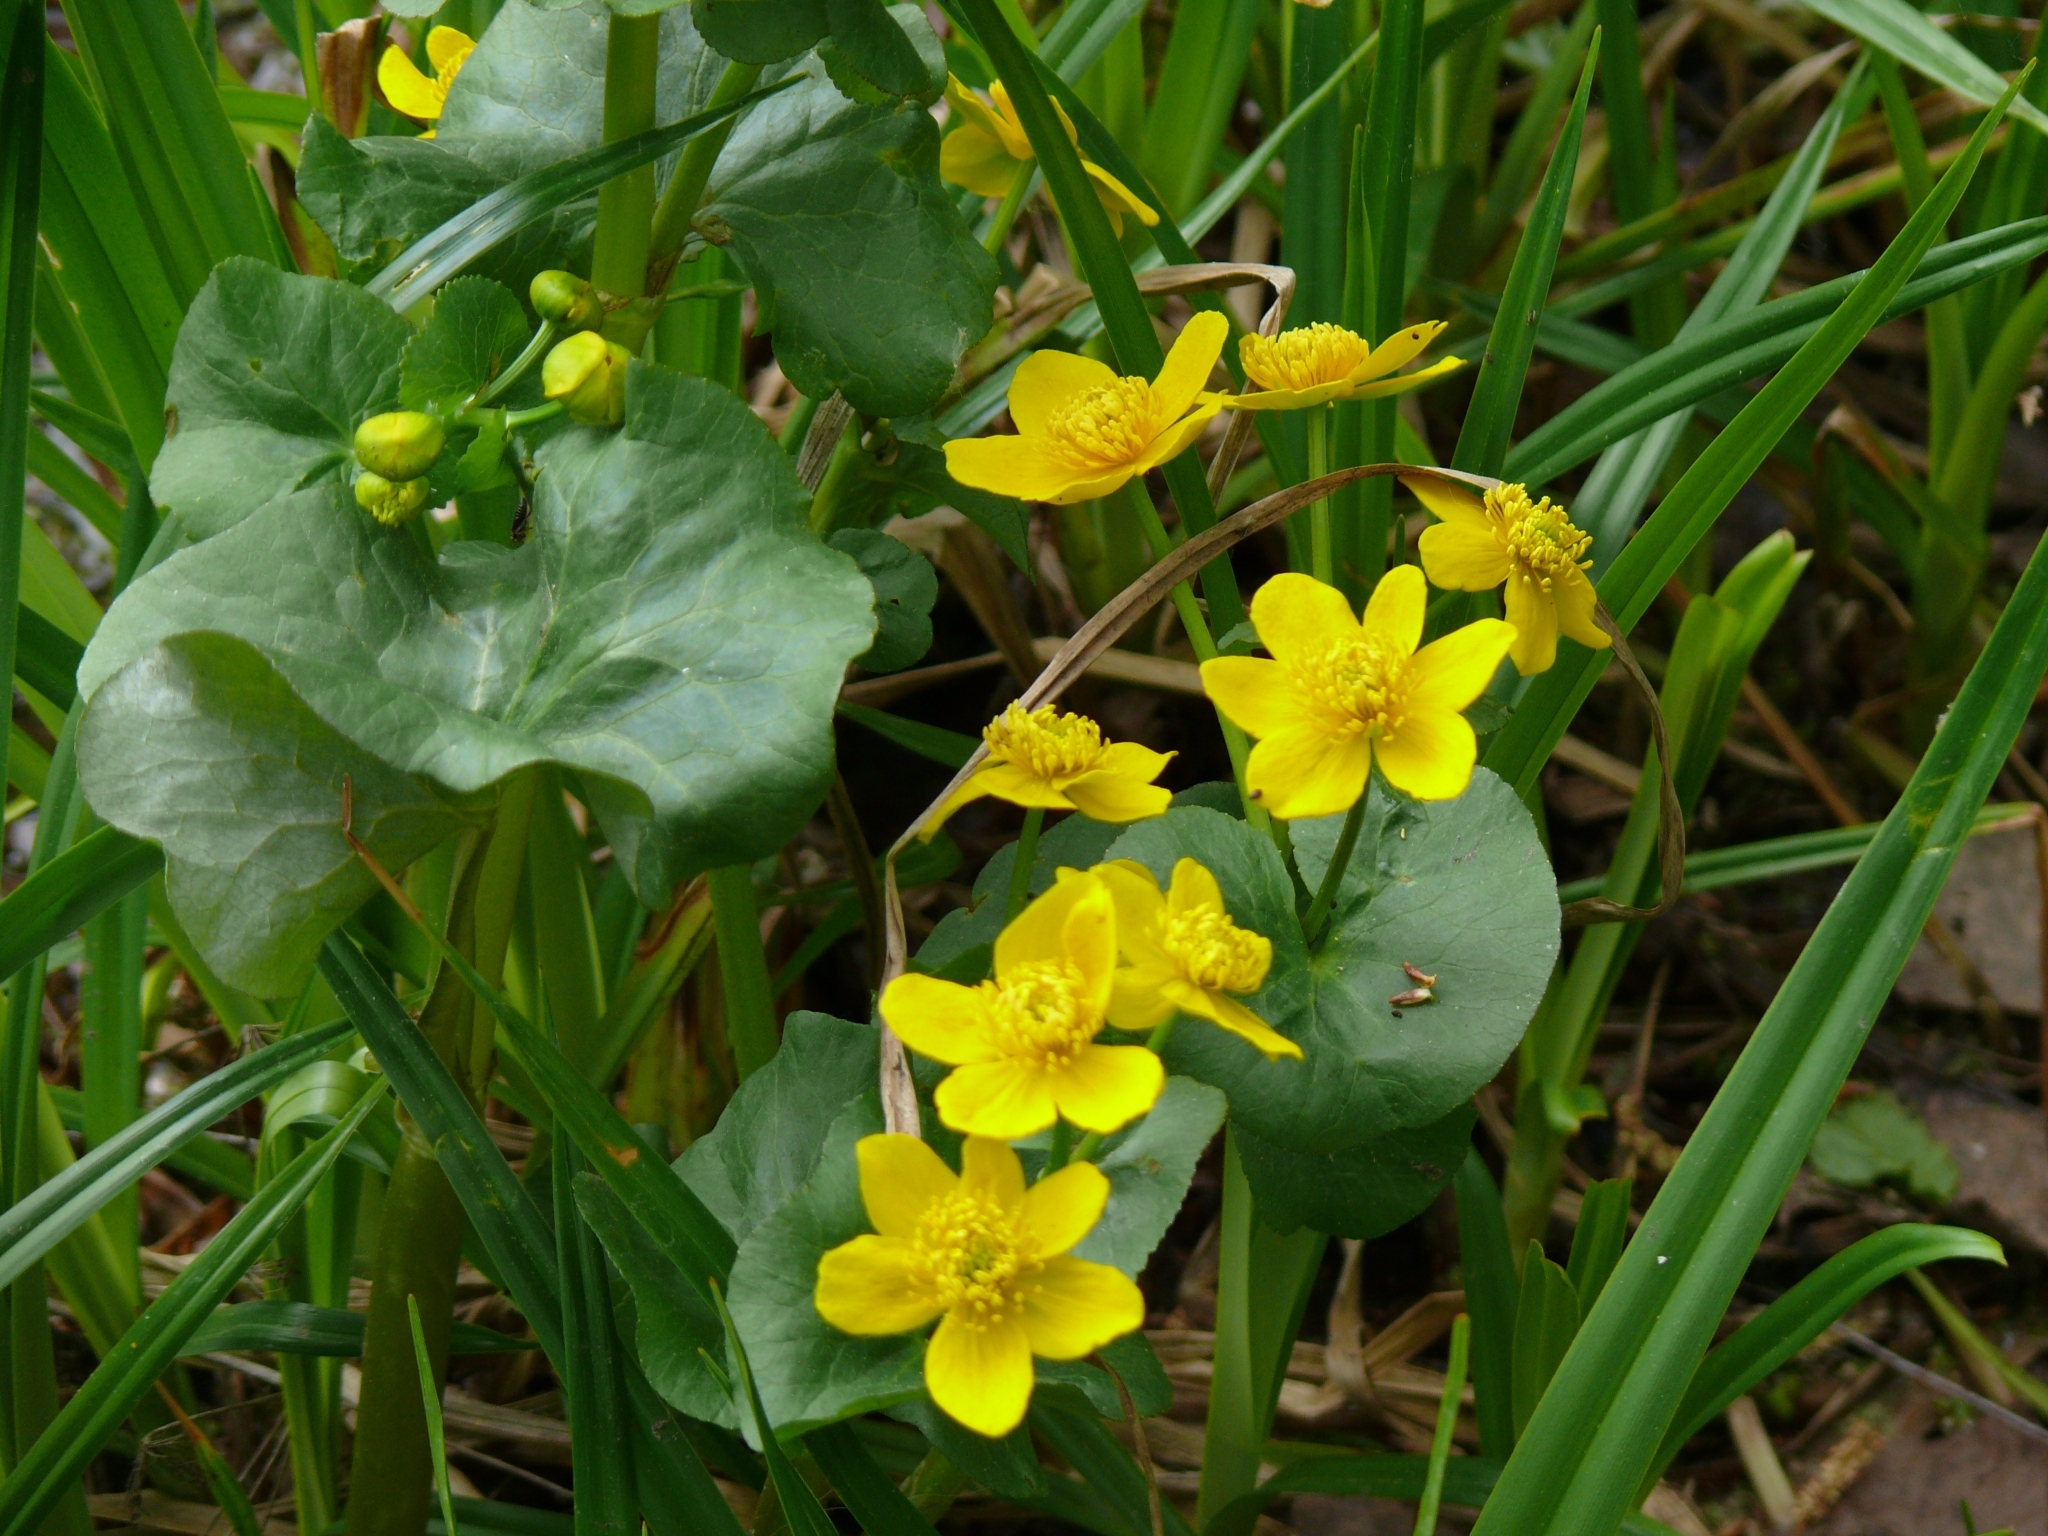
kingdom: Plantae
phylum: Tracheophyta
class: Magnoliopsida
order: Ranunculales
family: Ranunculaceae
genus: Caltha
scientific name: Caltha palustris
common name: Marsh marigold
